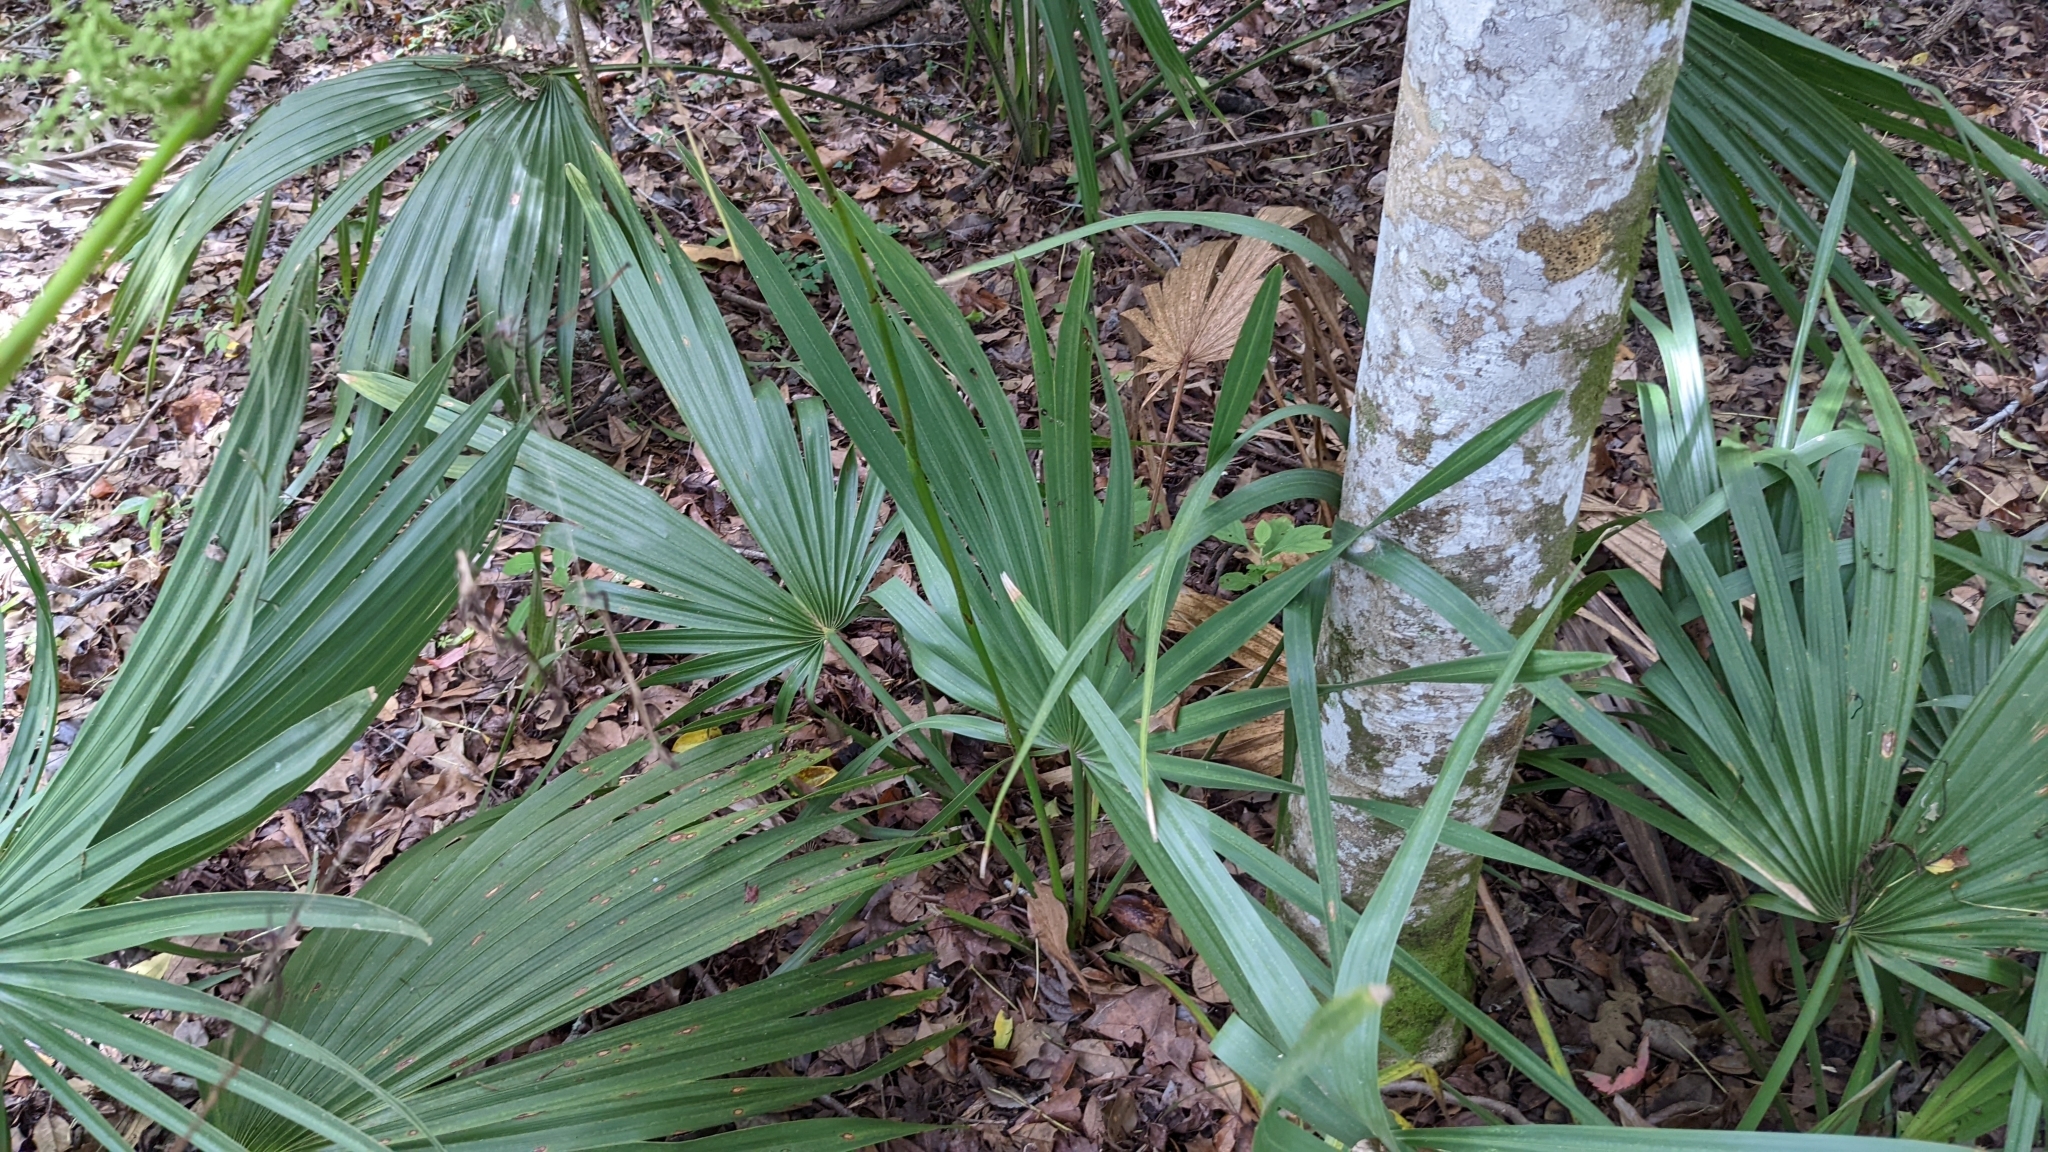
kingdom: Plantae
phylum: Tracheophyta
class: Liliopsida
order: Arecales
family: Arecaceae
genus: Sabal
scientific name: Sabal minor
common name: Dwarf palmetto
